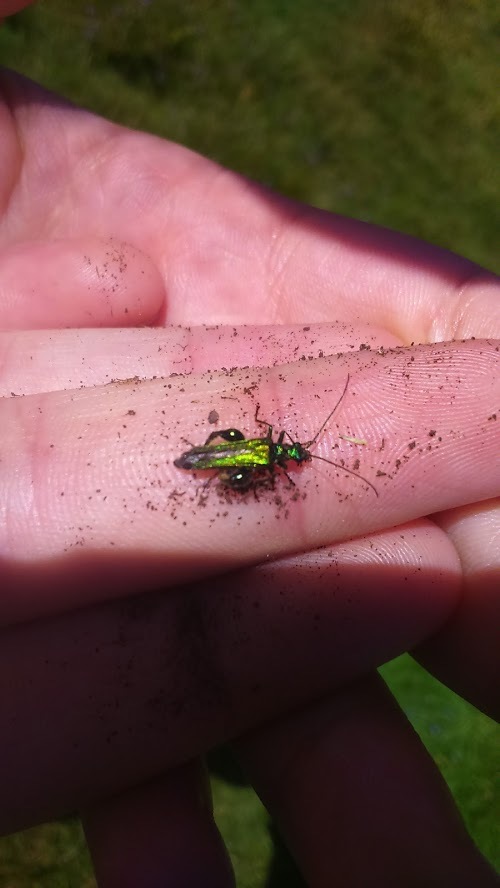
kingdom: Animalia
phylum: Arthropoda
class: Insecta
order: Coleoptera
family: Oedemeridae
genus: Oedemera
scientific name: Oedemera nobilis
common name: Swollen-thighed beetle
